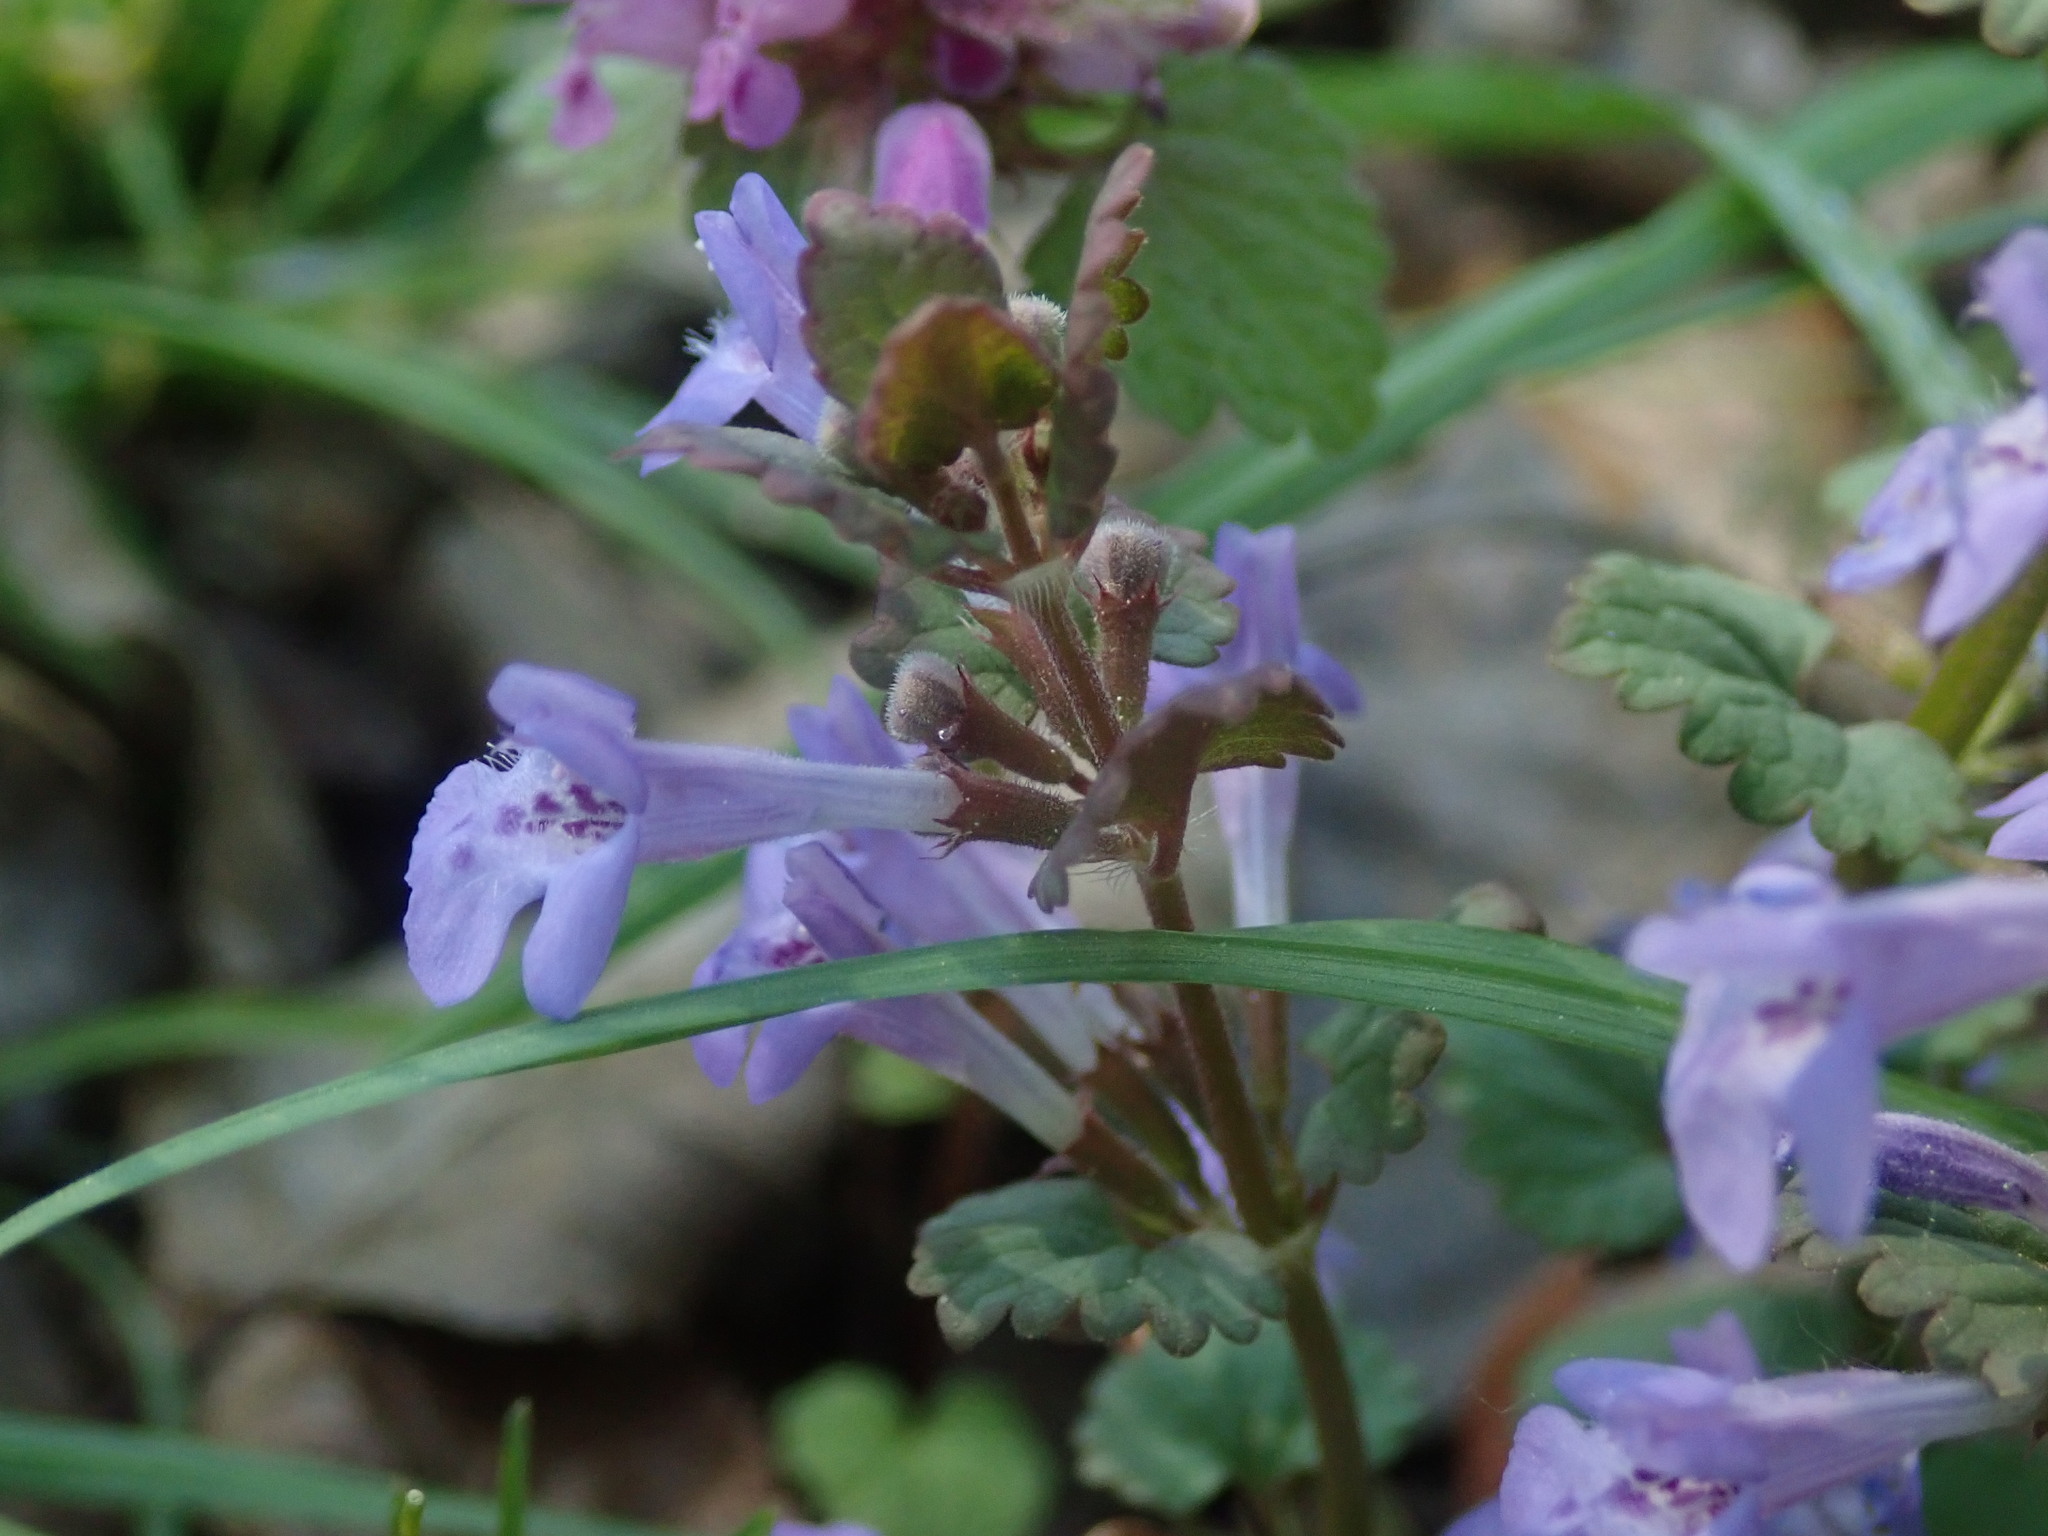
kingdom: Plantae
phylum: Tracheophyta
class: Magnoliopsida
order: Lamiales
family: Lamiaceae
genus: Glechoma
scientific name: Glechoma hederacea
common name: Ground ivy
